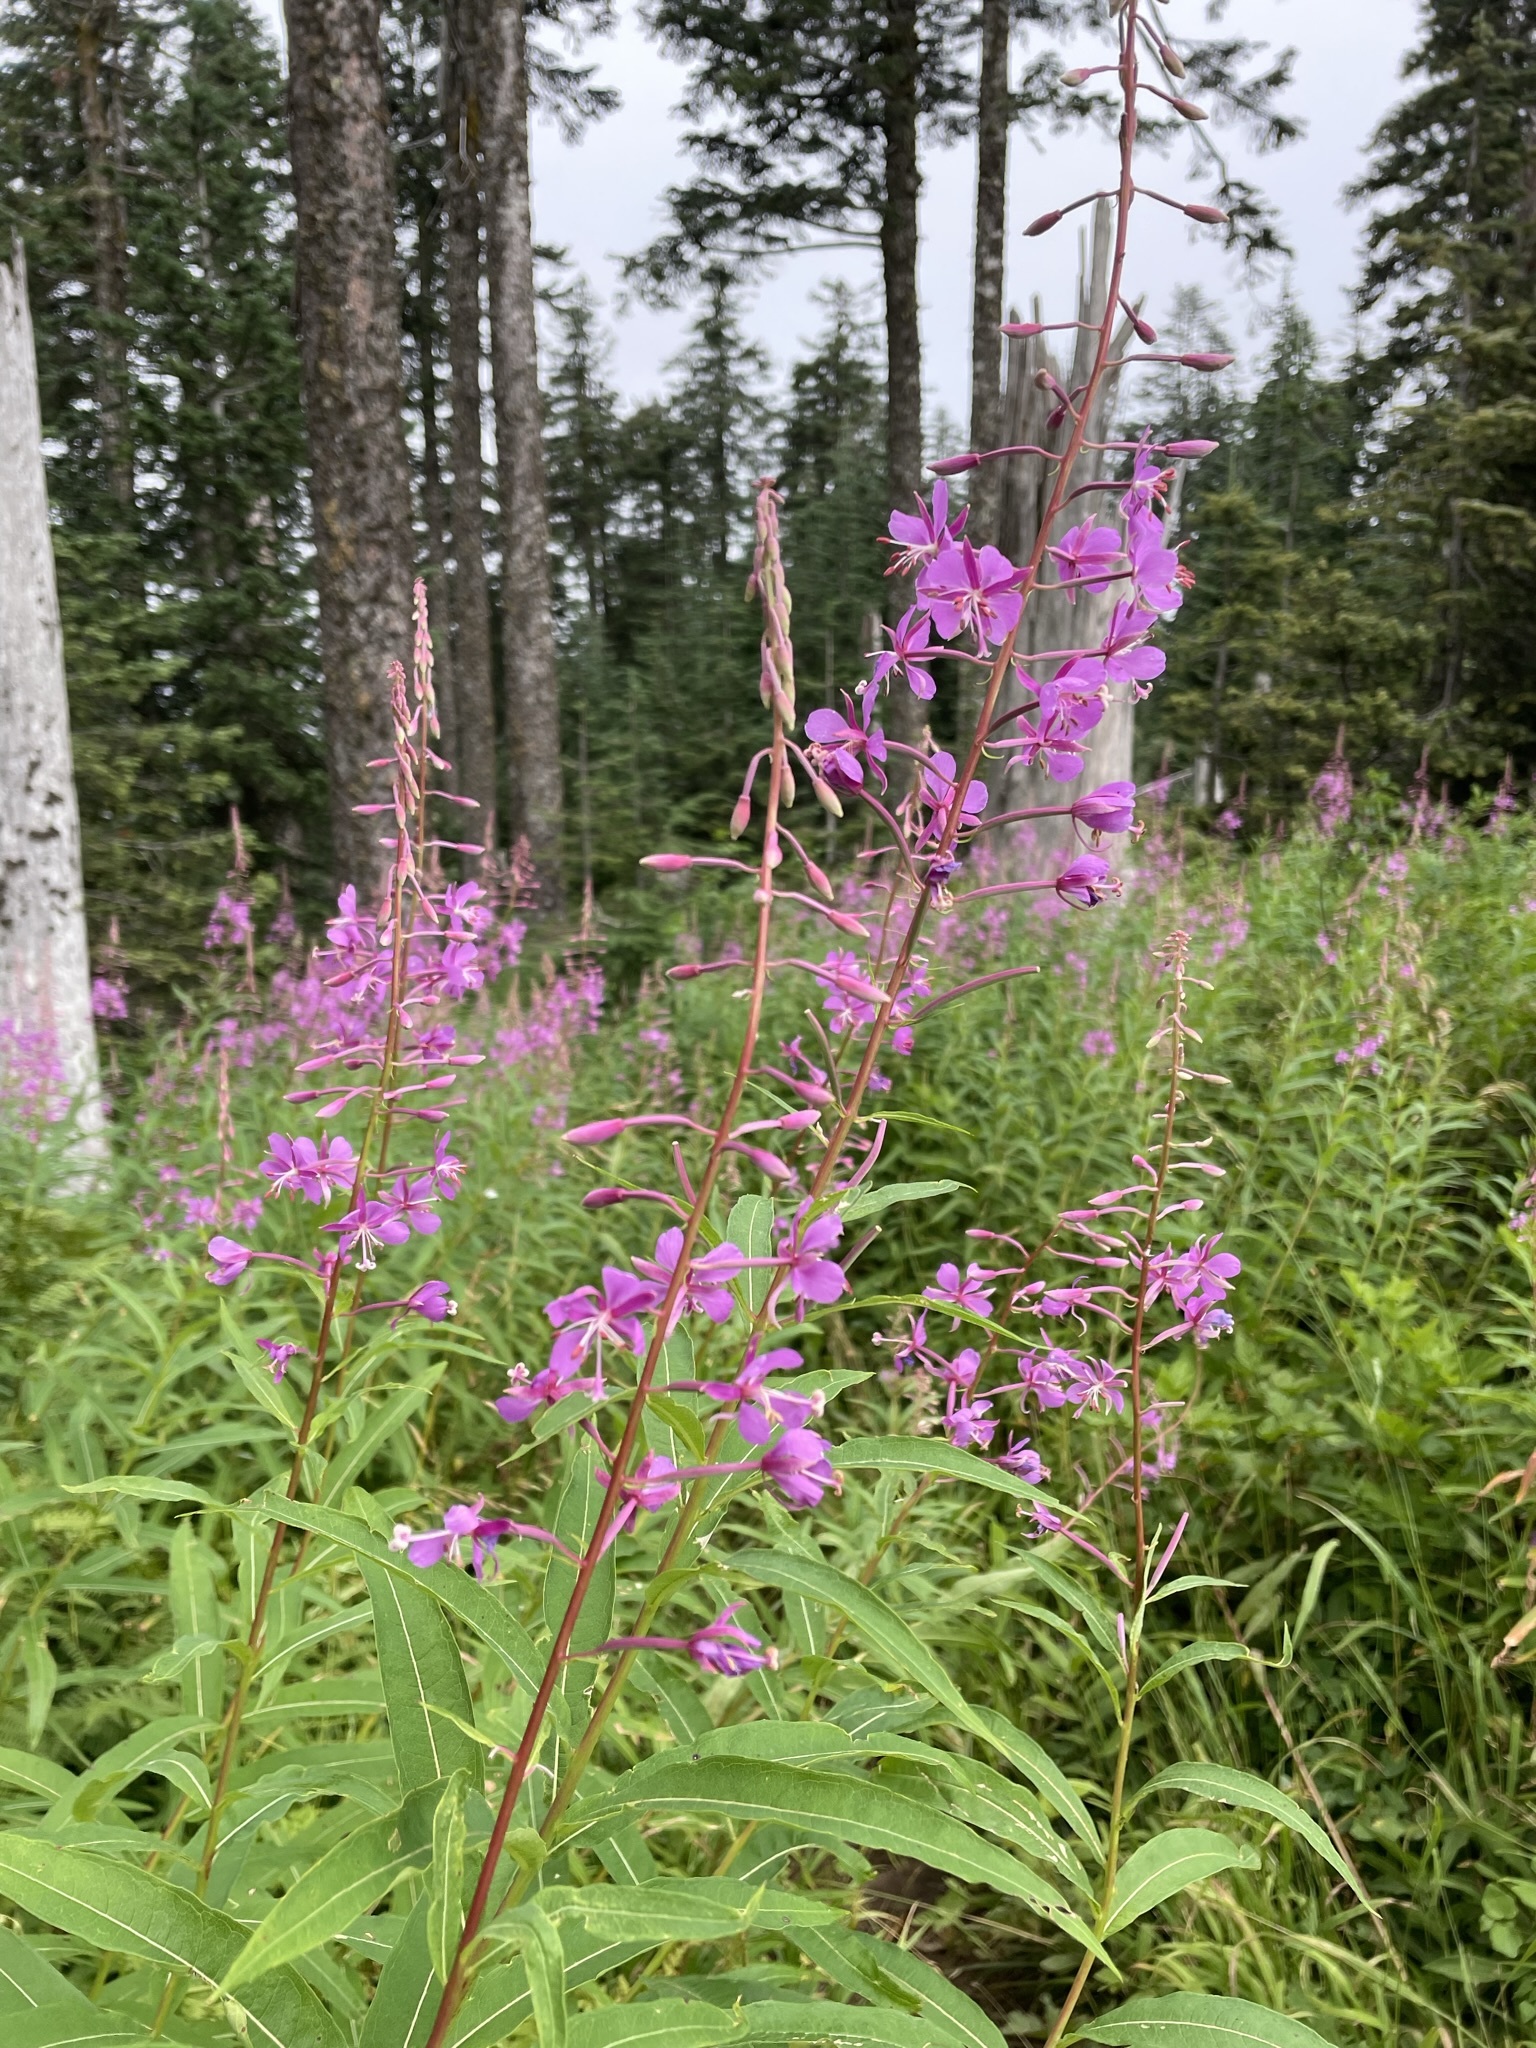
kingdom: Plantae
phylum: Tracheophyta
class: Magnoliopsida
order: Myrtales
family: Onagraceae
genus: Chamaenerion
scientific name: Chamaenerion angustifolium
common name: Fireweed
